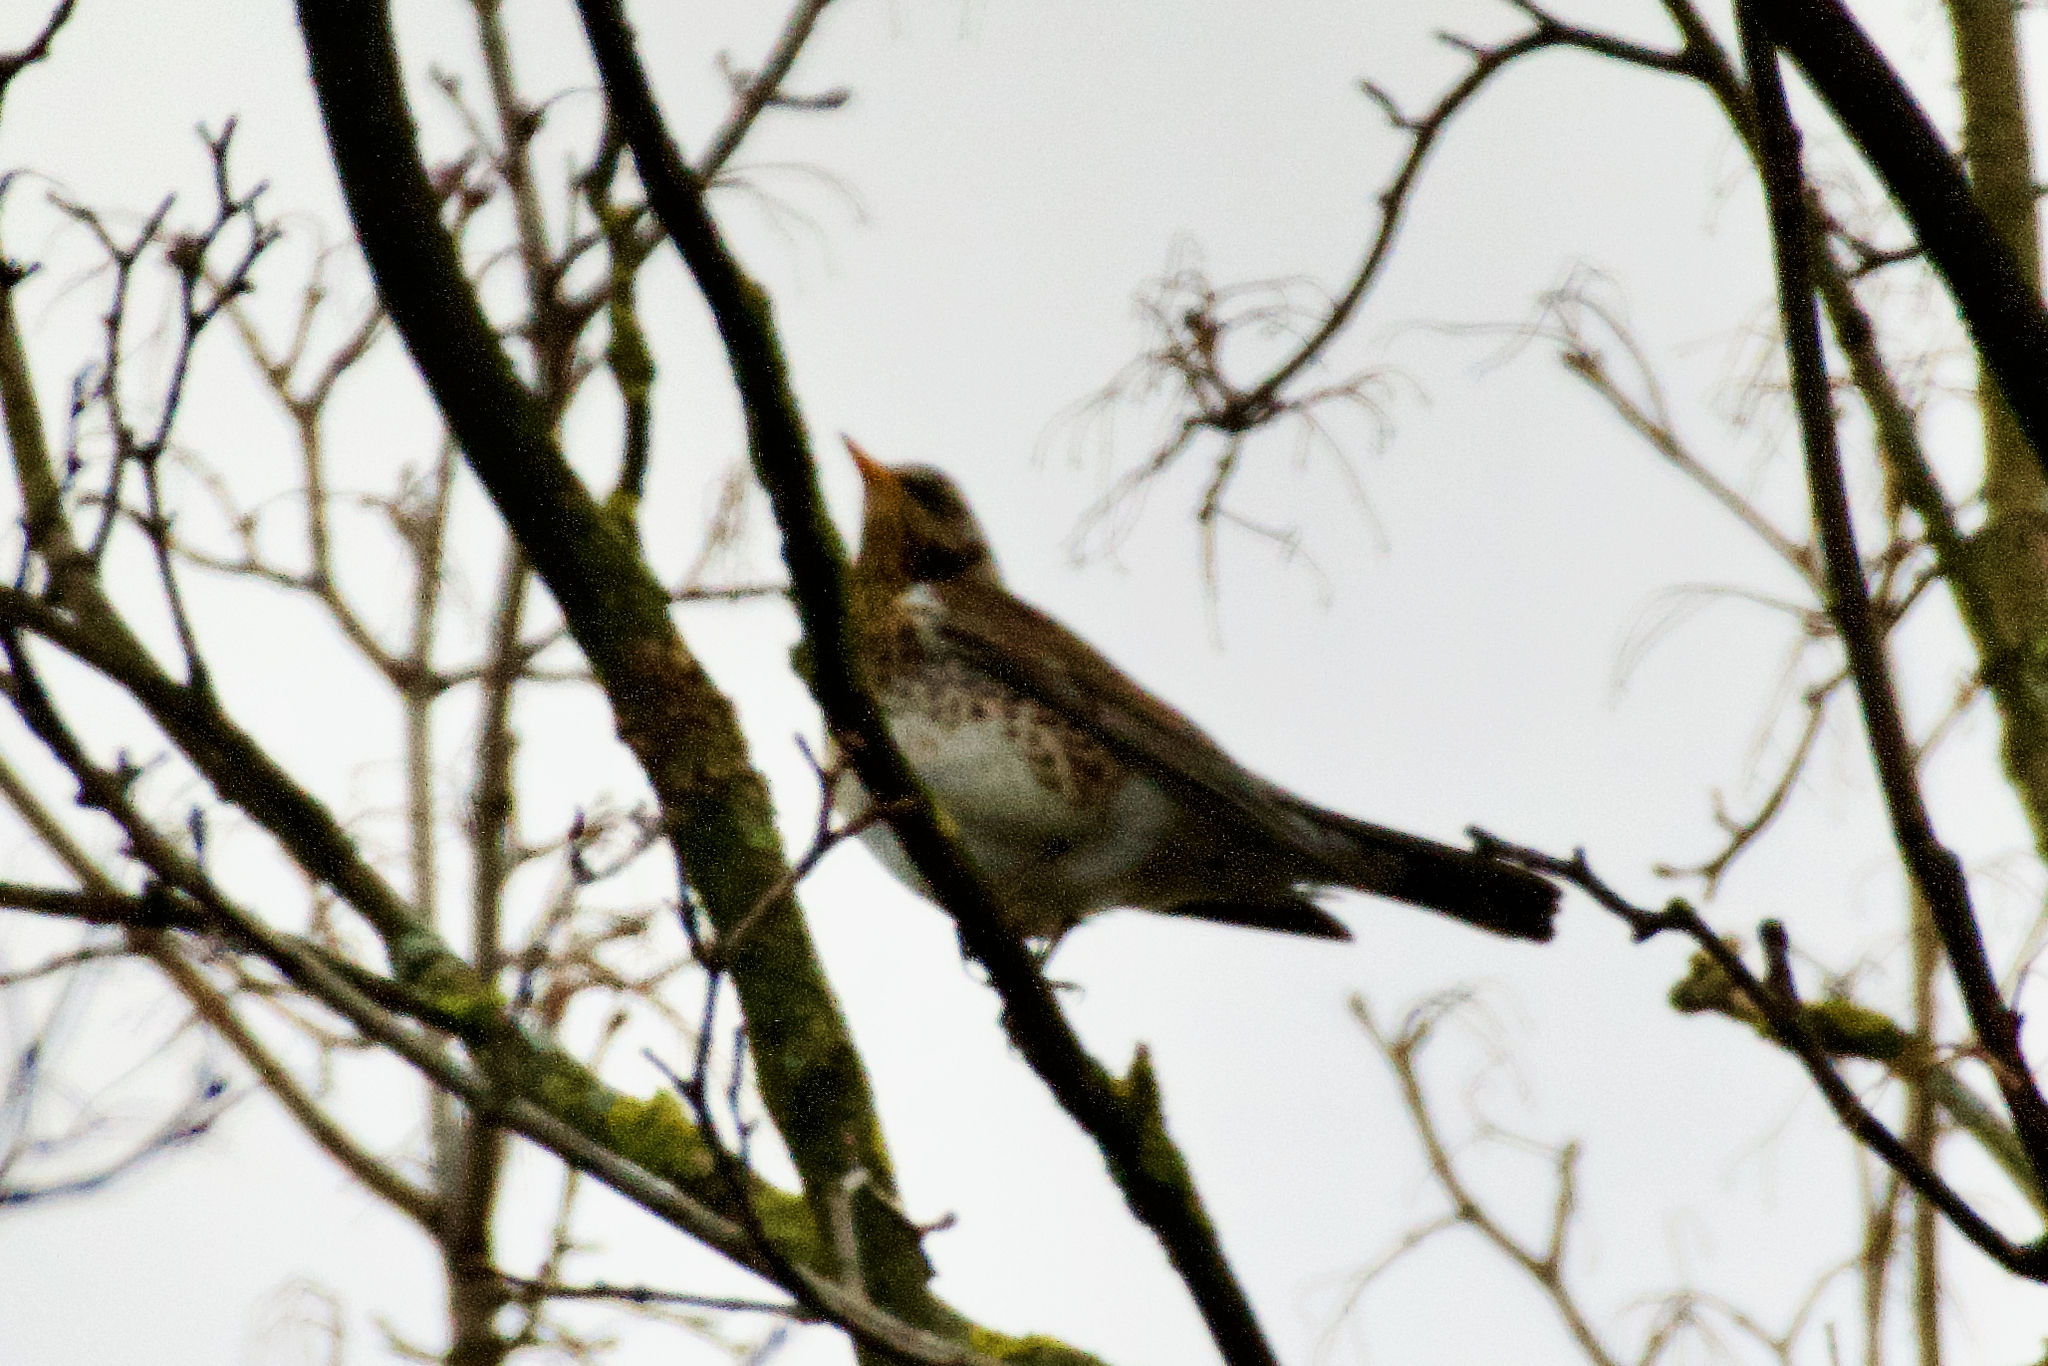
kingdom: Animalia
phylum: Chordata
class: Aves
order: Passeriformes
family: Turdidae
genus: Turdus
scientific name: Turdus pilaris
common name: Fieldfare
